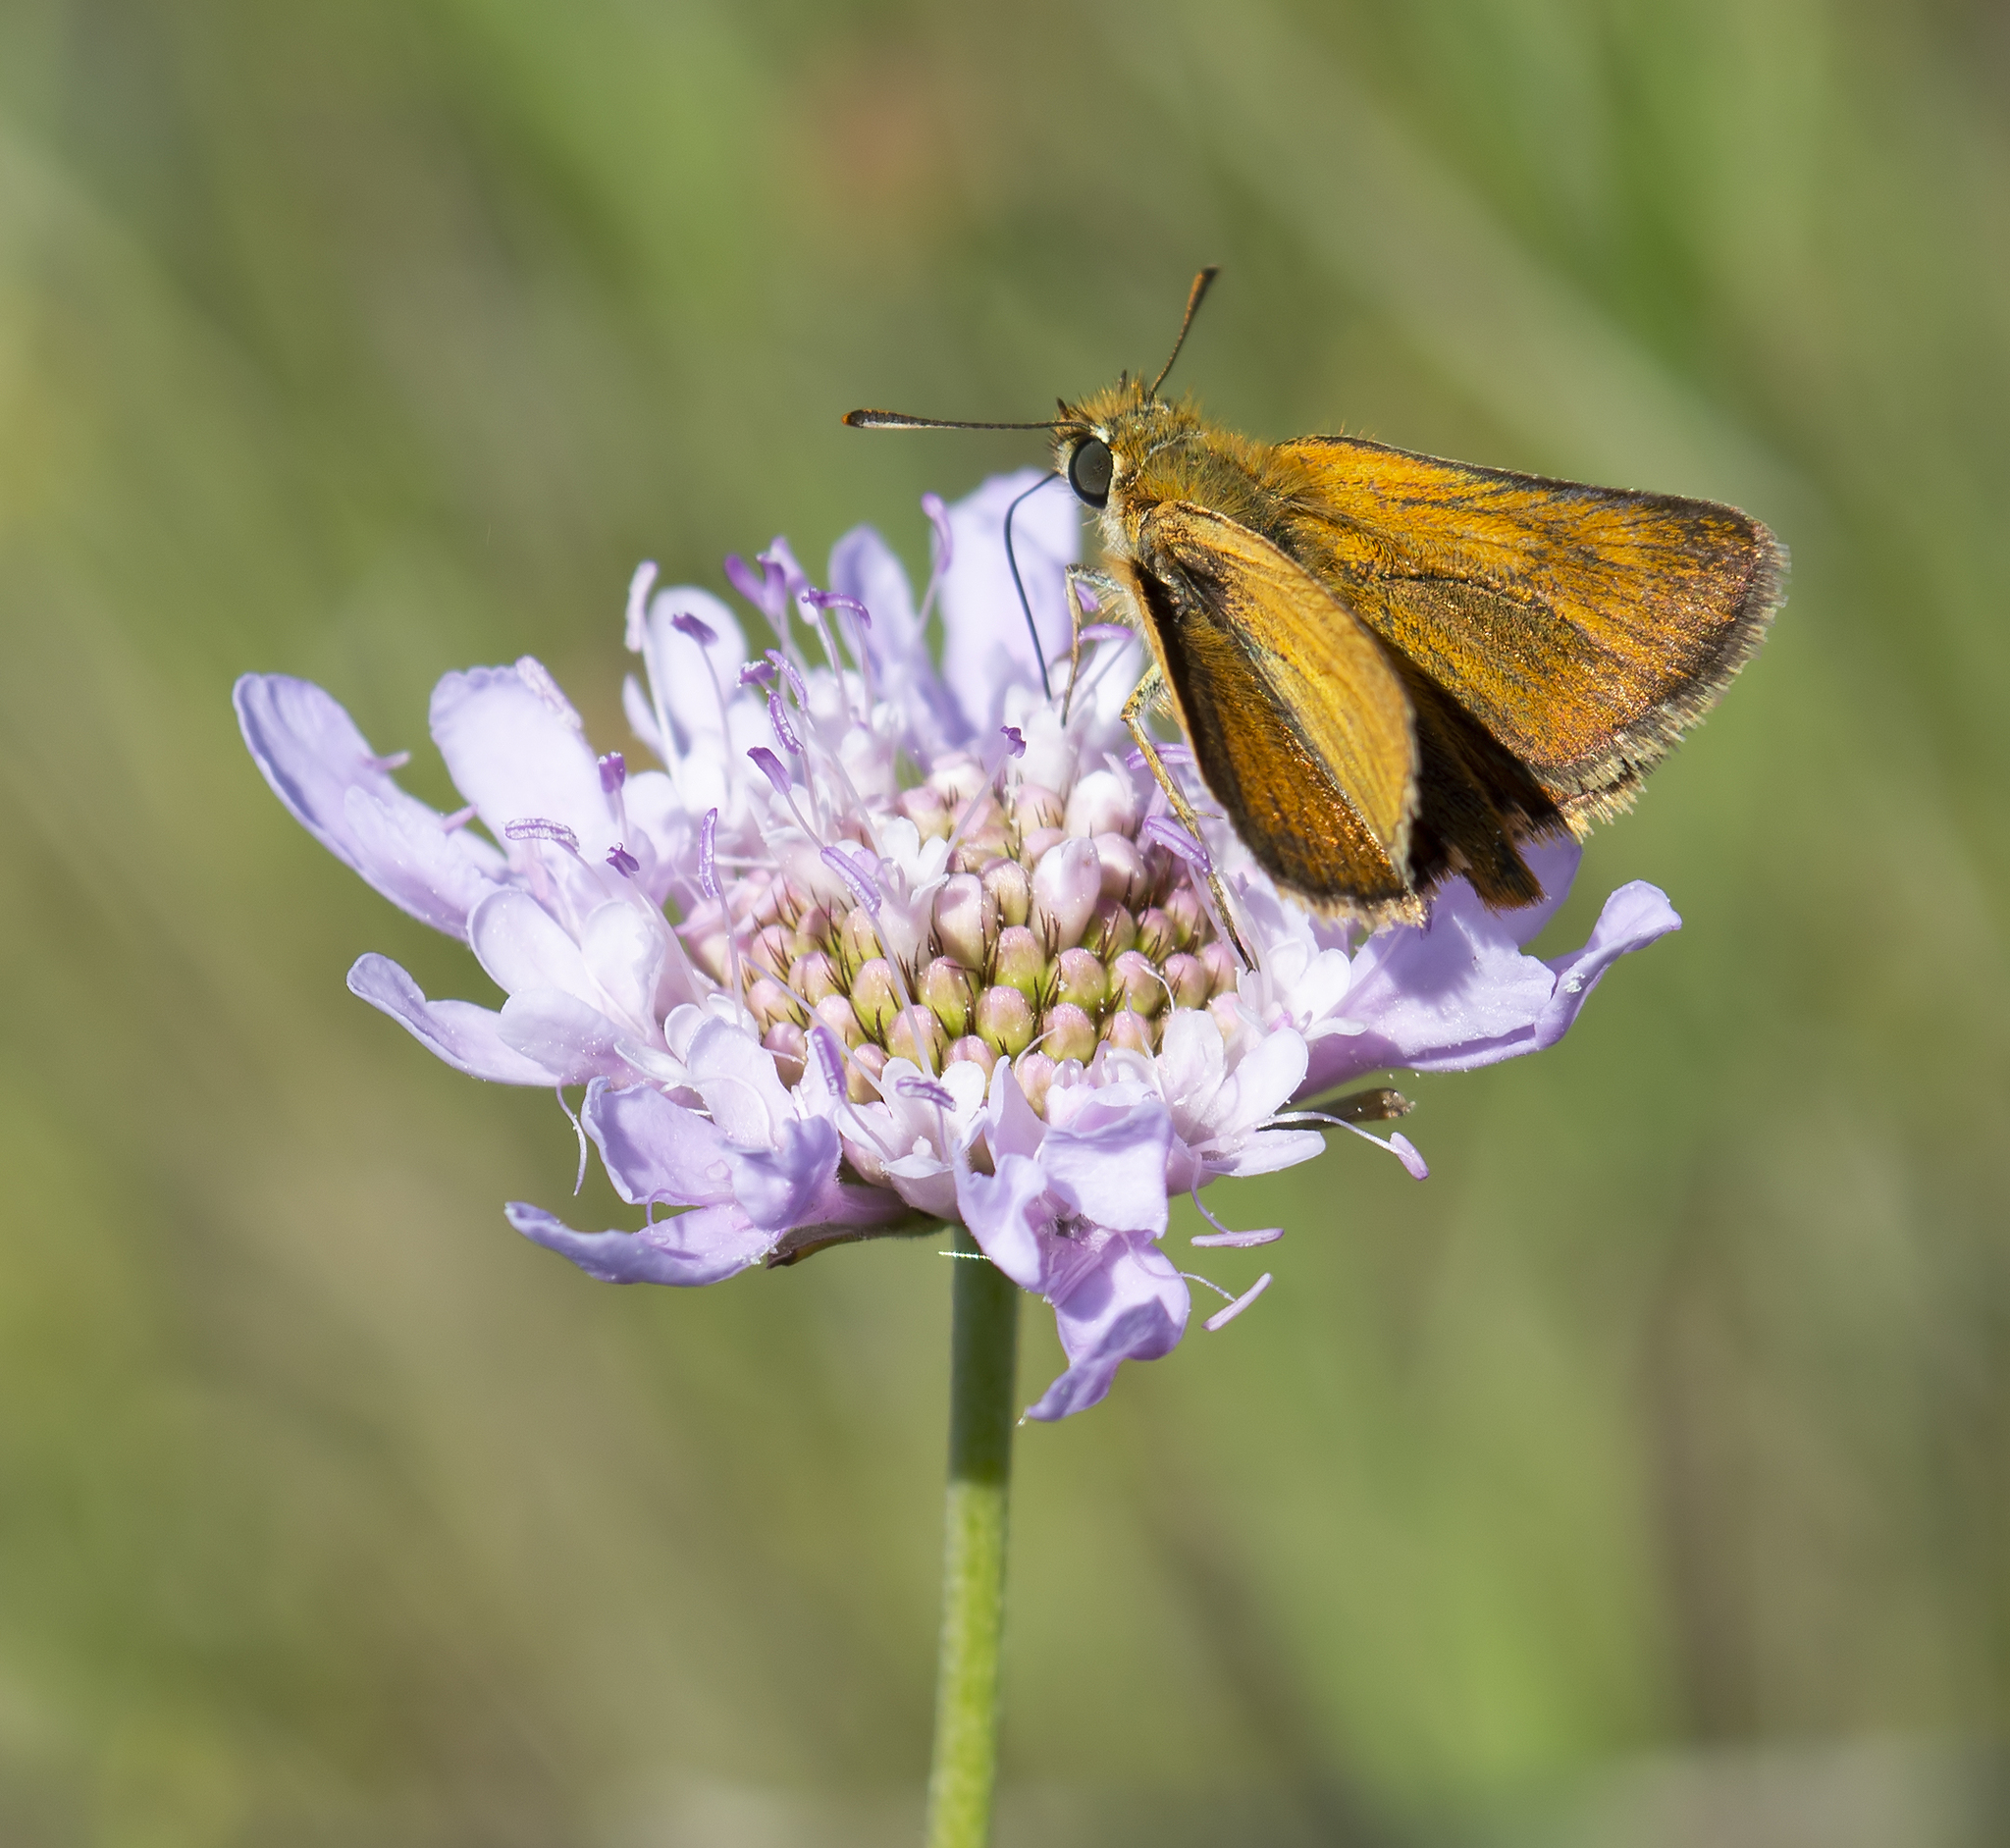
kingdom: Animalia
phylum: Arthropoda
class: Insecta
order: Lepidoptera
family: Hesperiidae
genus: Thymelicus
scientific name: Thymelicus acteon
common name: Lulworth skipper
